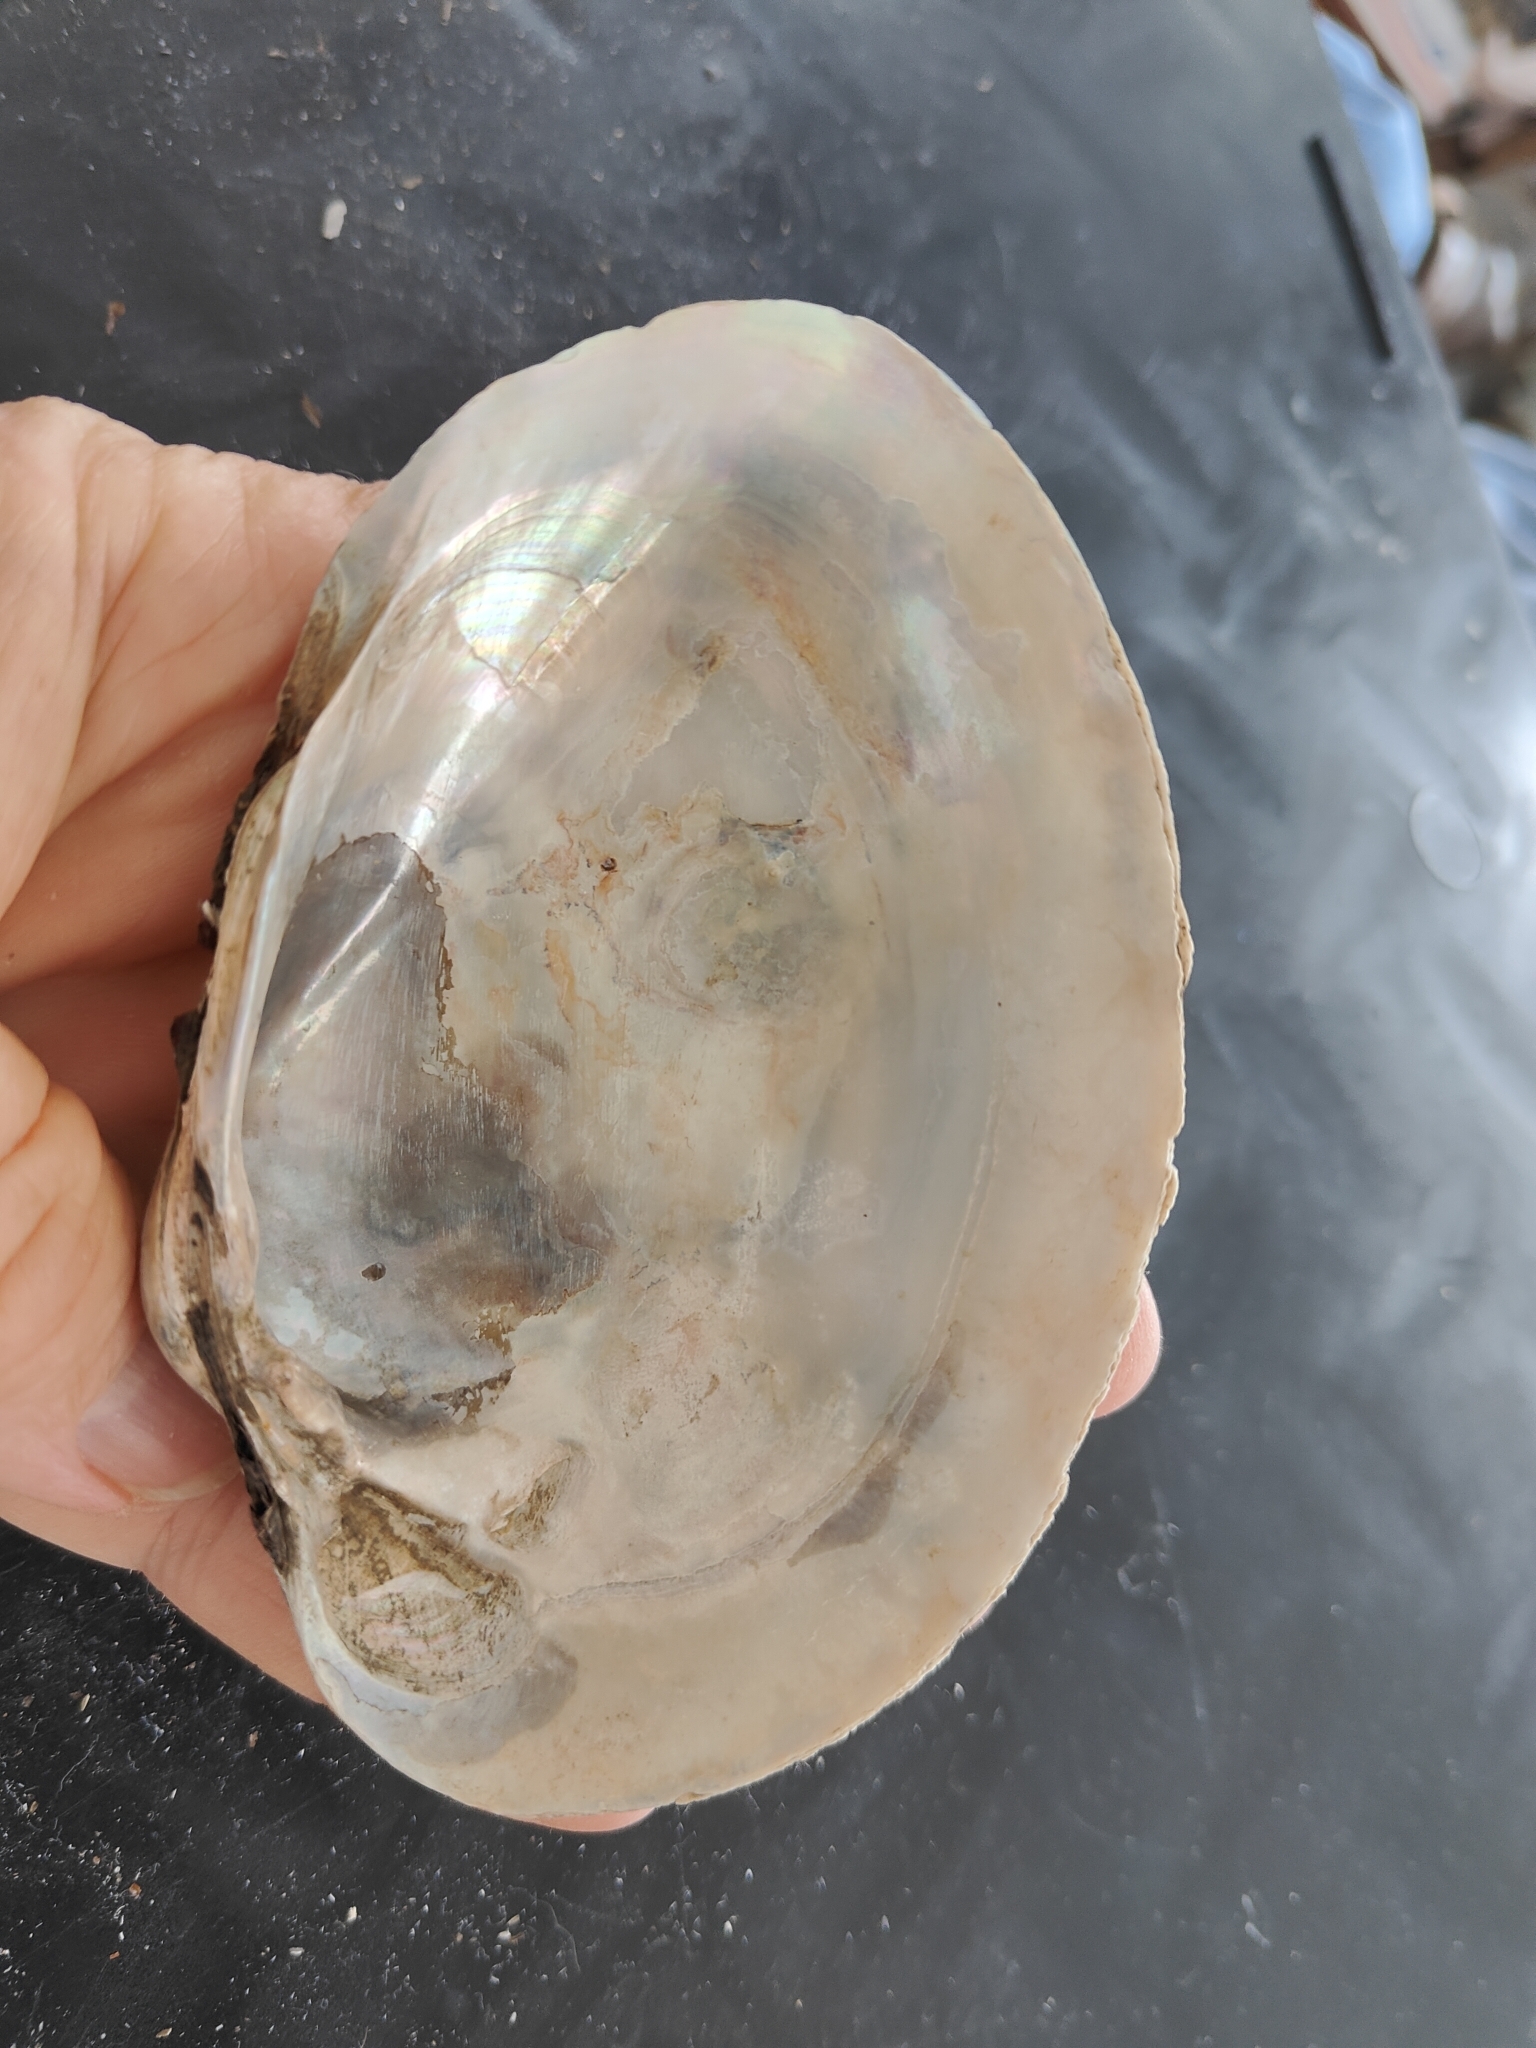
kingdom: Animalia
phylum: Mollusca
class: Bivalvia
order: Unionida
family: Unionidae
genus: Lampsilis
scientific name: Lampsilis cardium
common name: Plain pocketbook
